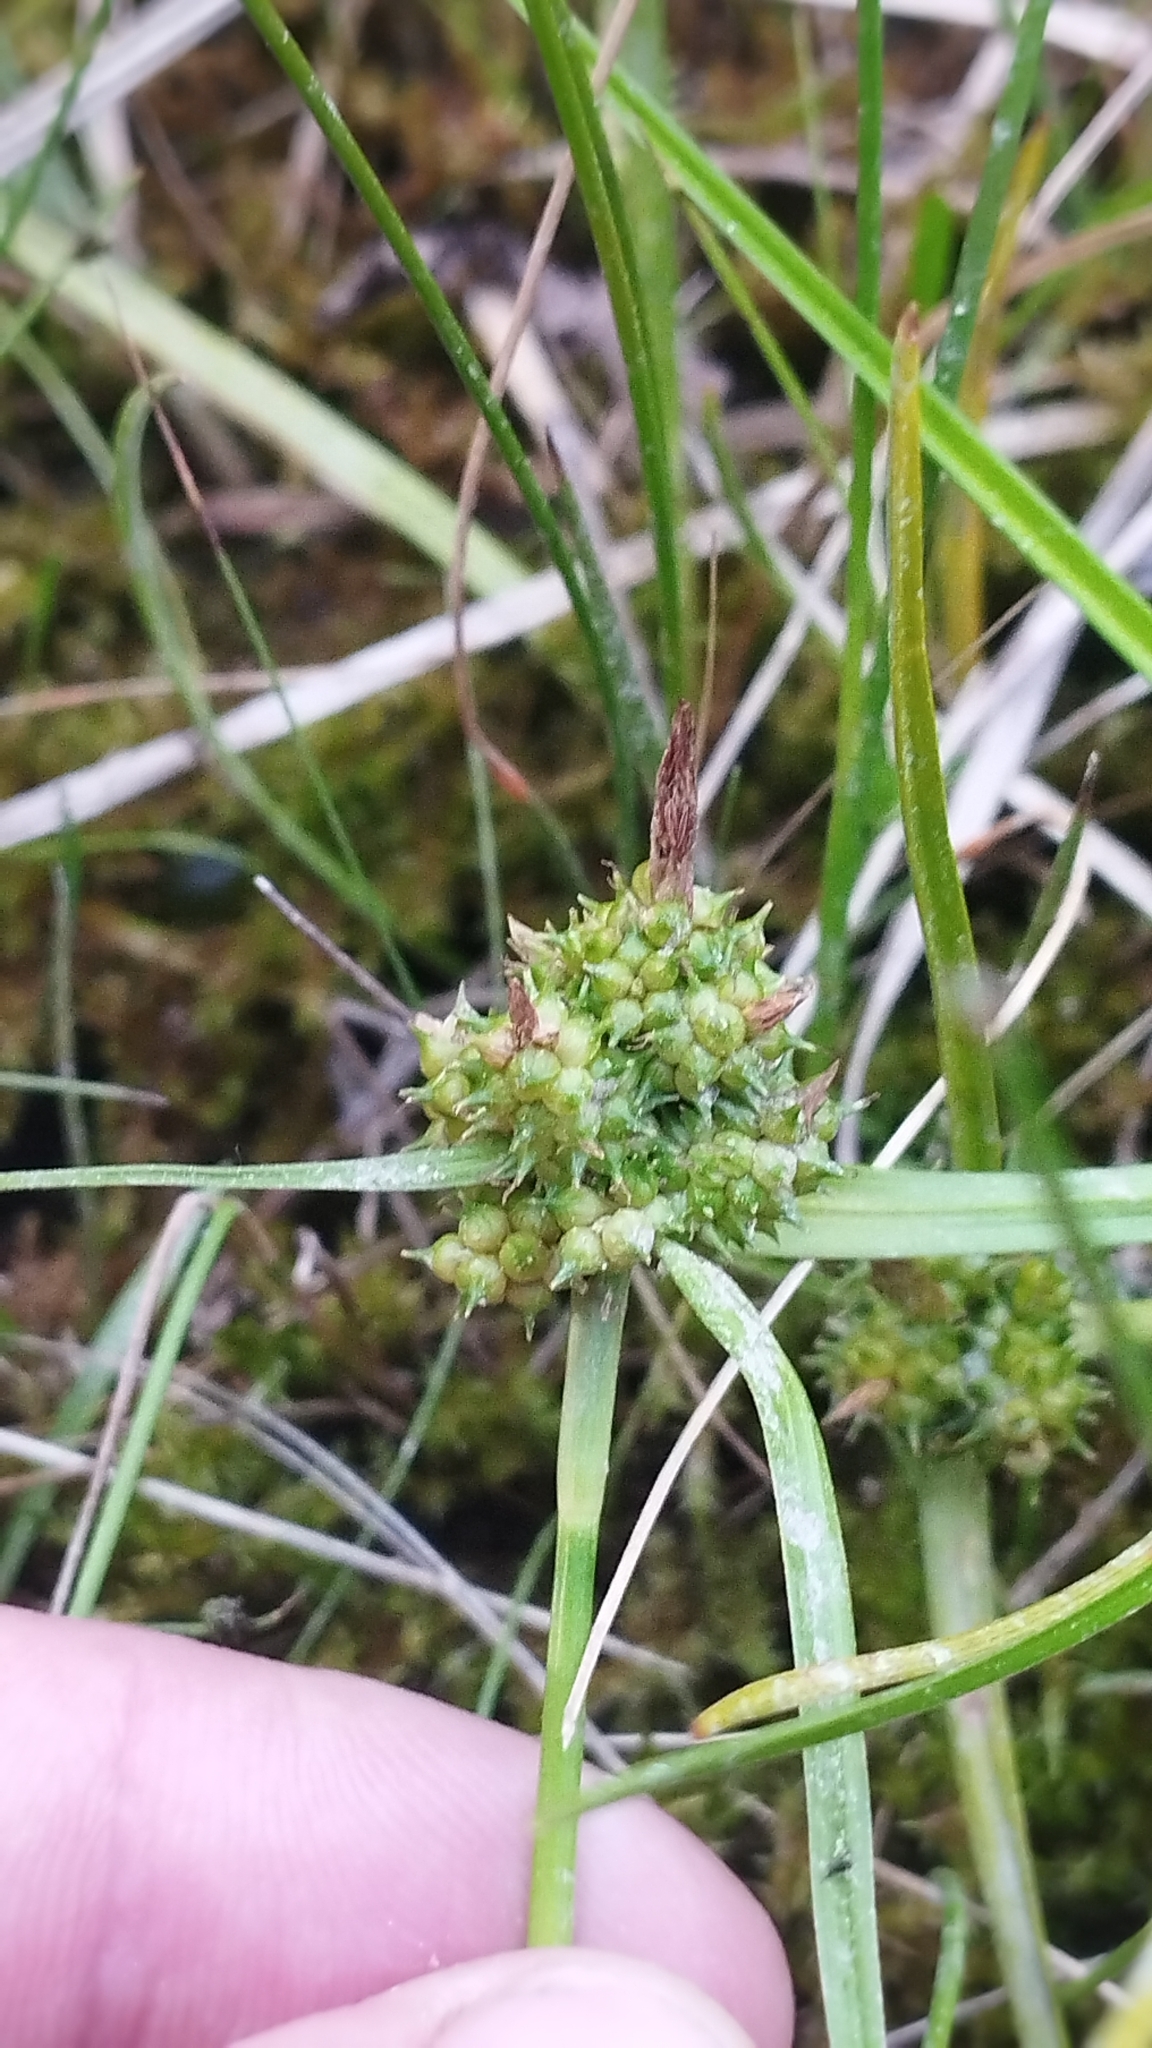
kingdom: Plantae
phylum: Tracheophyta
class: Liliopsida
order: Poales
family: Cyperaceae
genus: Carex
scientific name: Carex flaviformis
